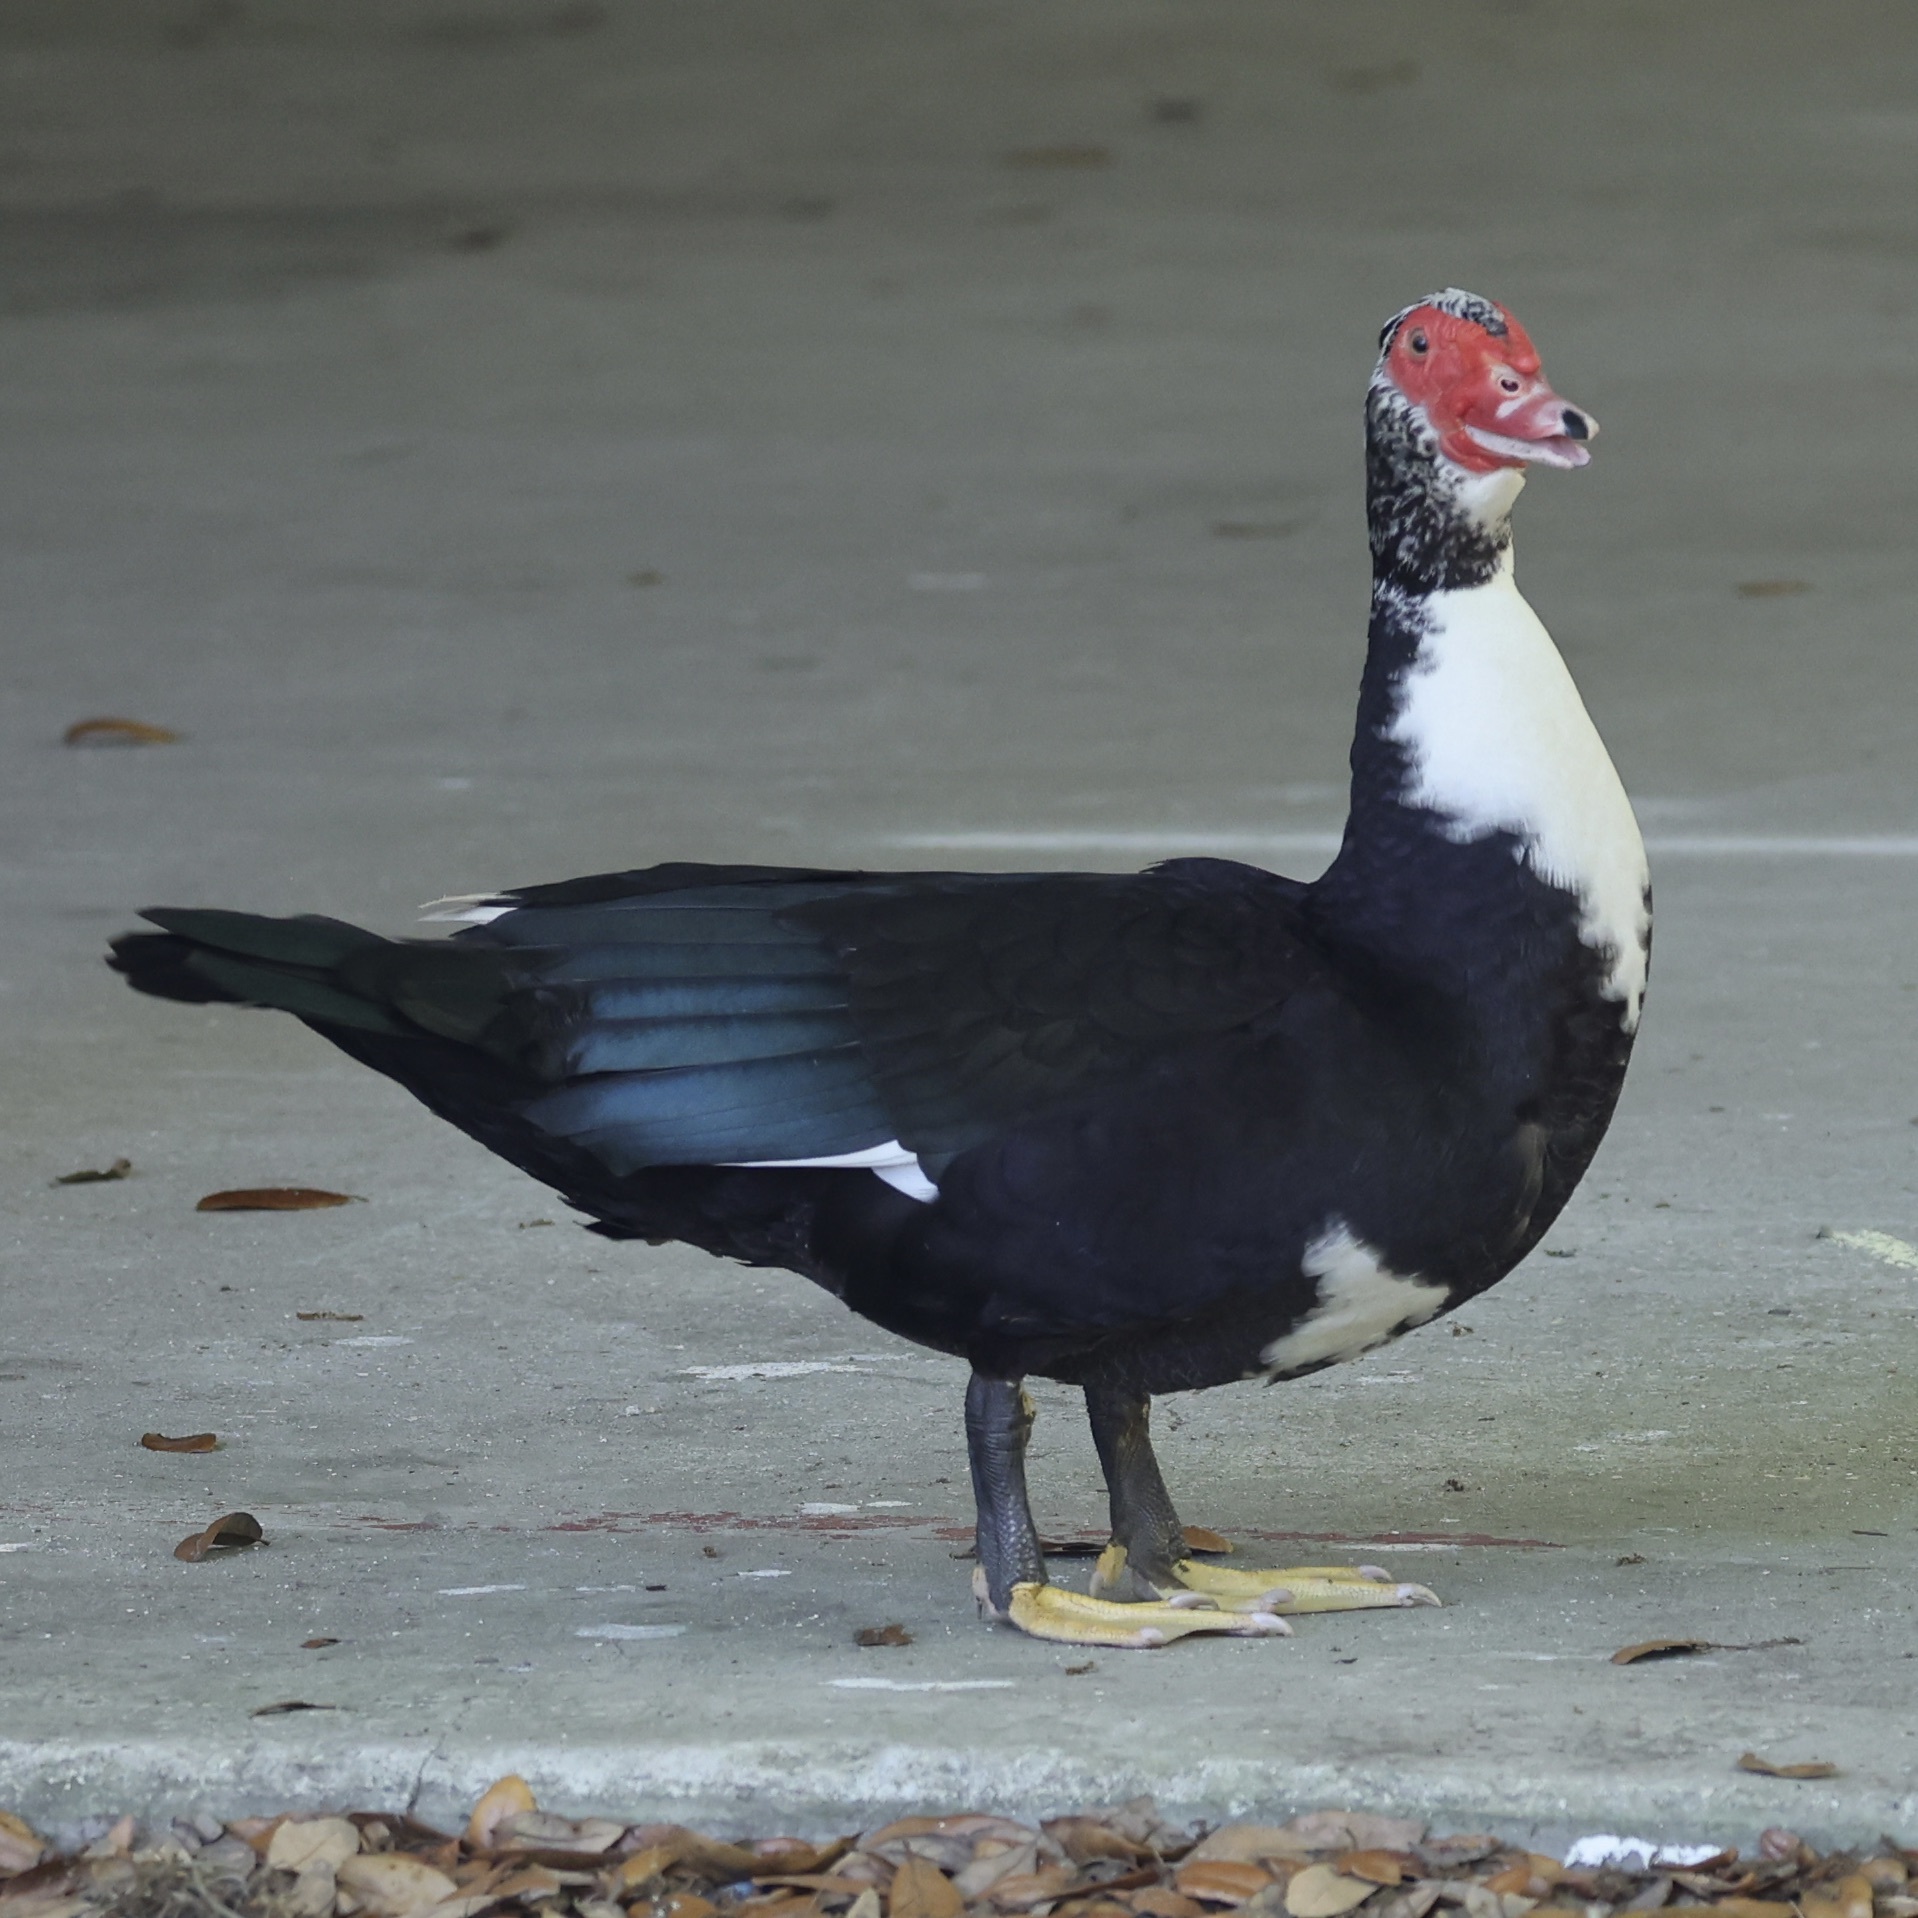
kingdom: Animalia
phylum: Chordata
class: Aves
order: Anseriformes
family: Anatidae
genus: Cairina
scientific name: Cairina moschata
